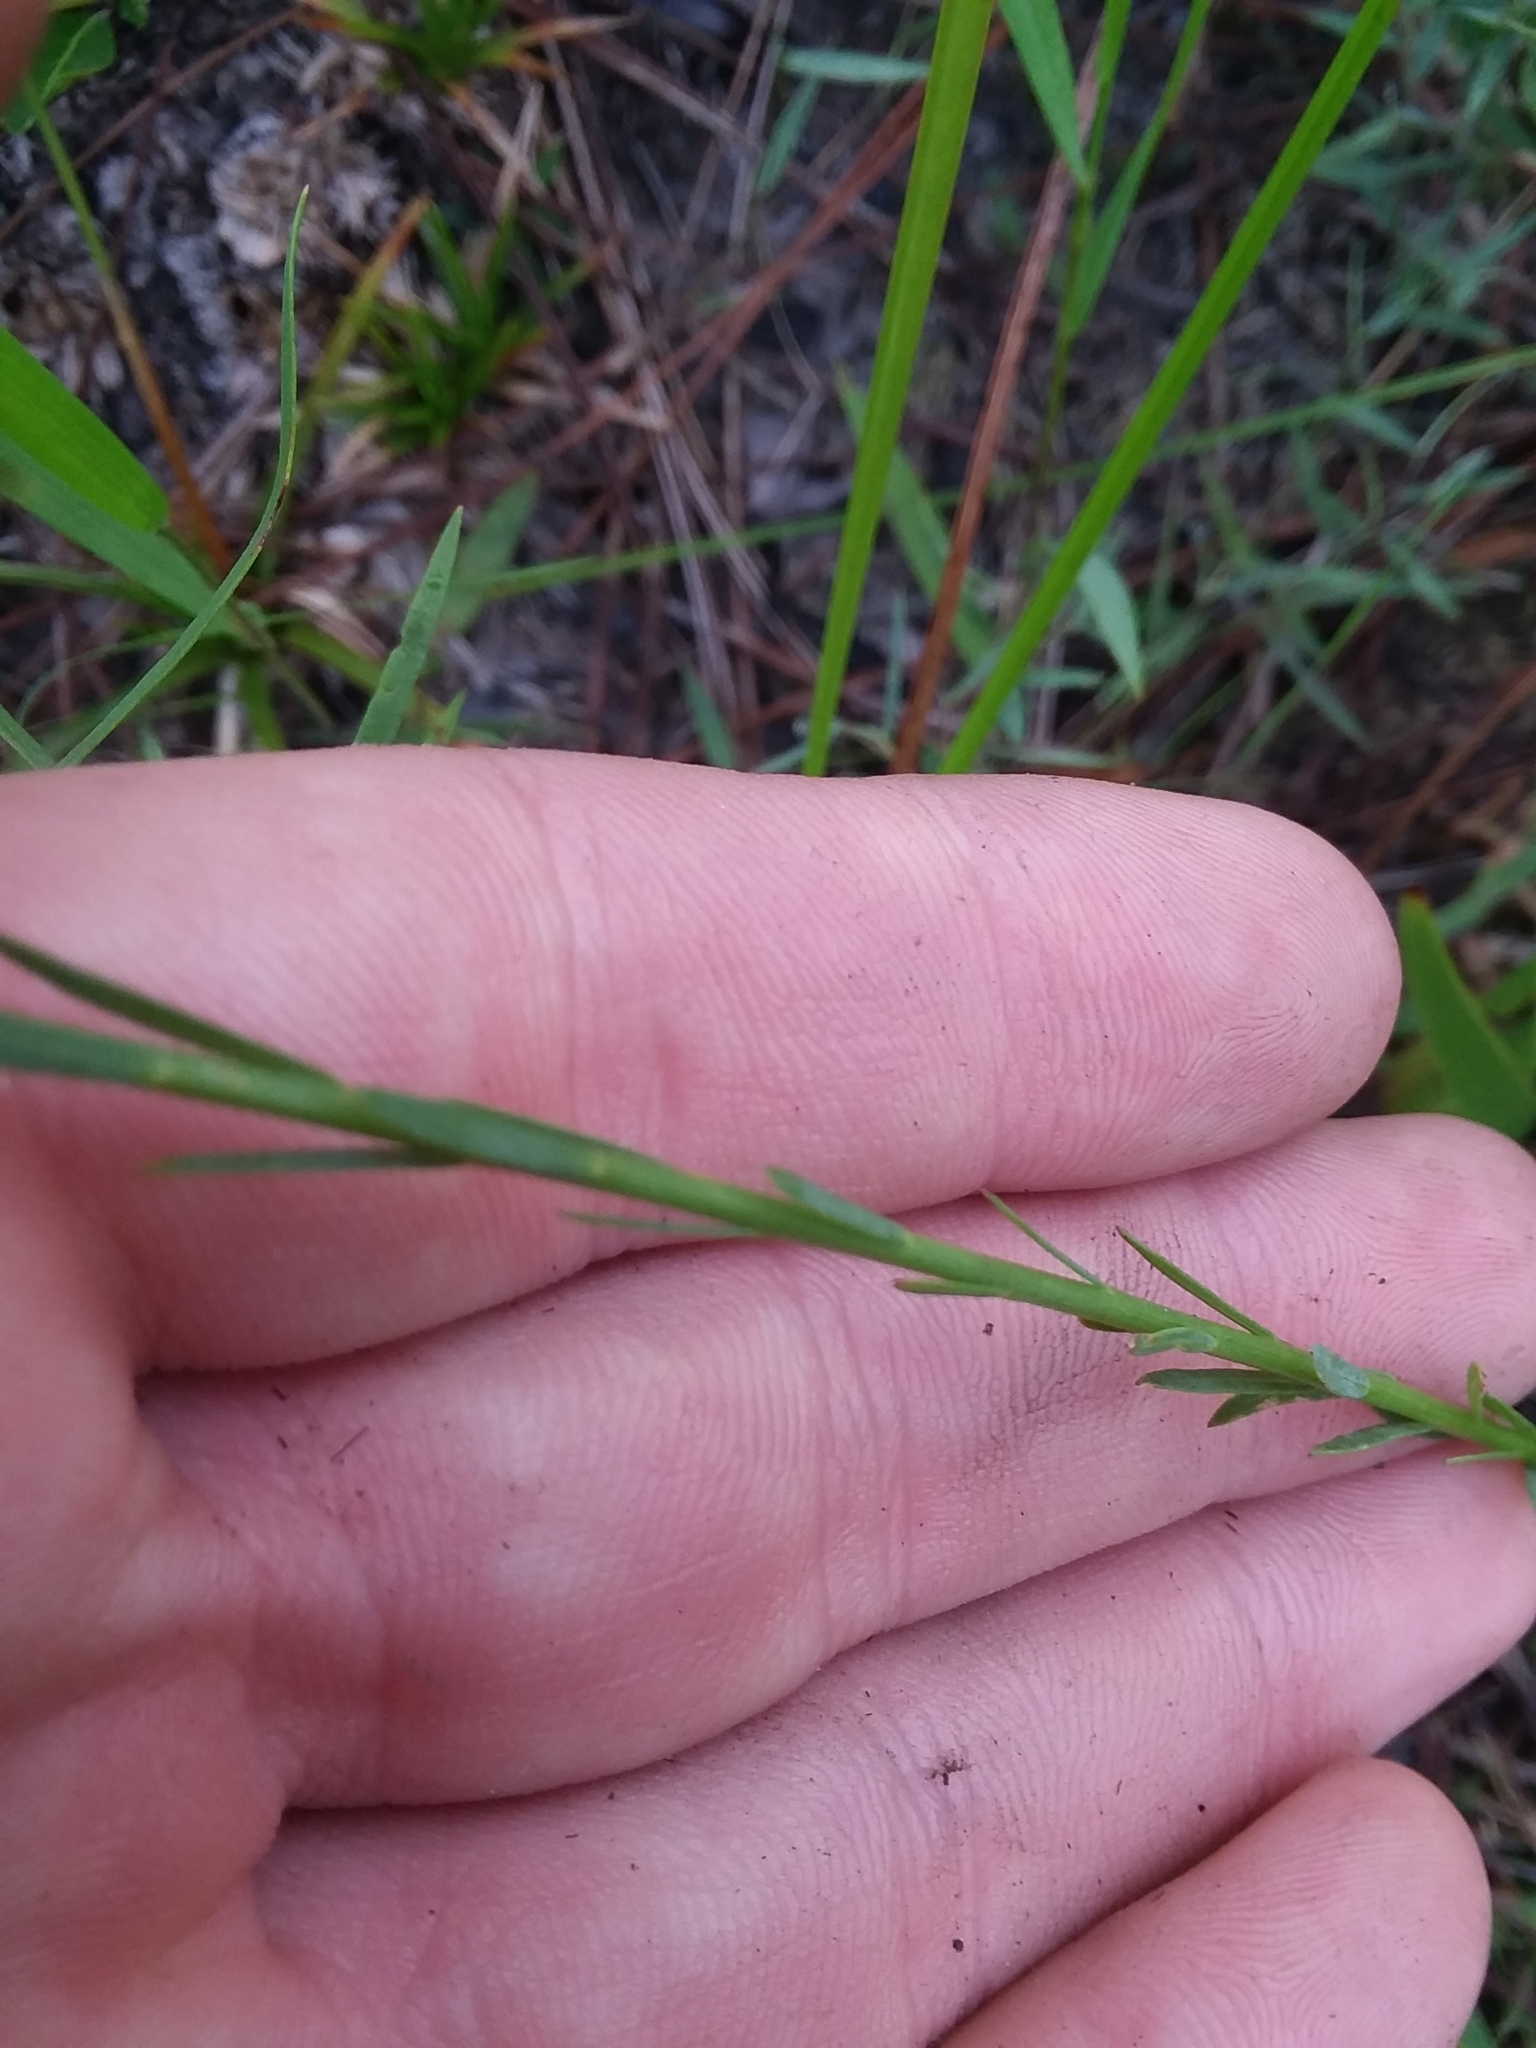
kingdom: Plantae
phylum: Tracheophyta
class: Magnoliopsida
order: Malpighiales
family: Linaceae
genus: Linum
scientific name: Linum floridanum
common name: Florida yellow flax
